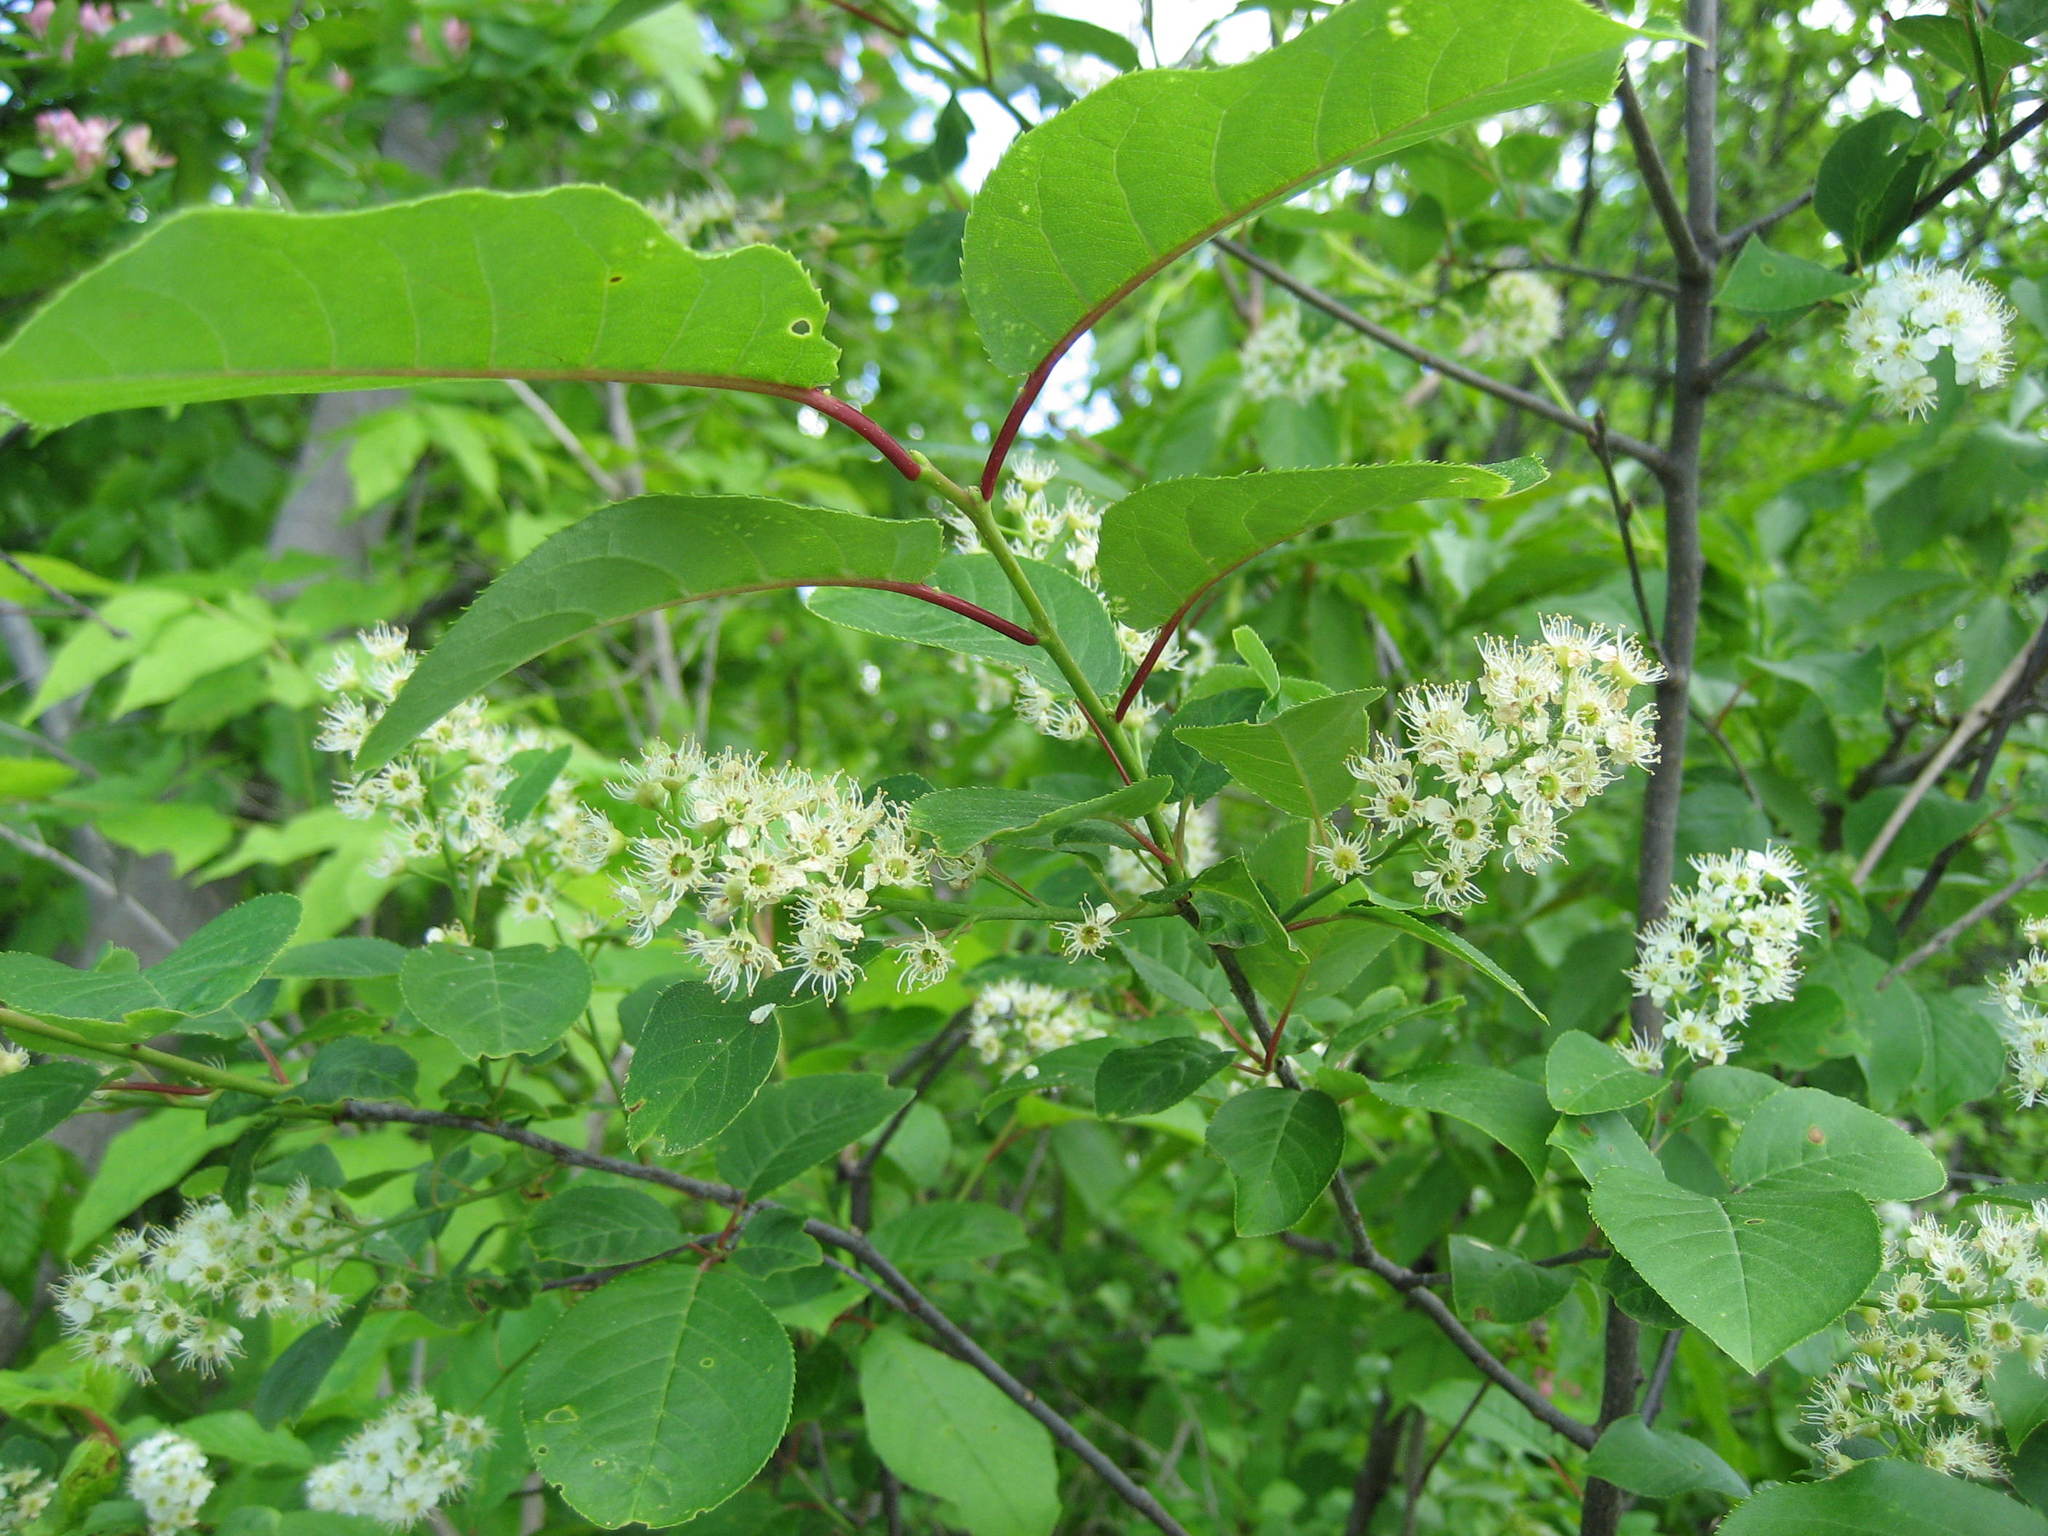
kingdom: Plantae
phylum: Tracheophyta
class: Magnoliopsida
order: Rosales
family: Rosaceae
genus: Prunus
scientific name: Prunus virginiana
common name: Chokecherry
